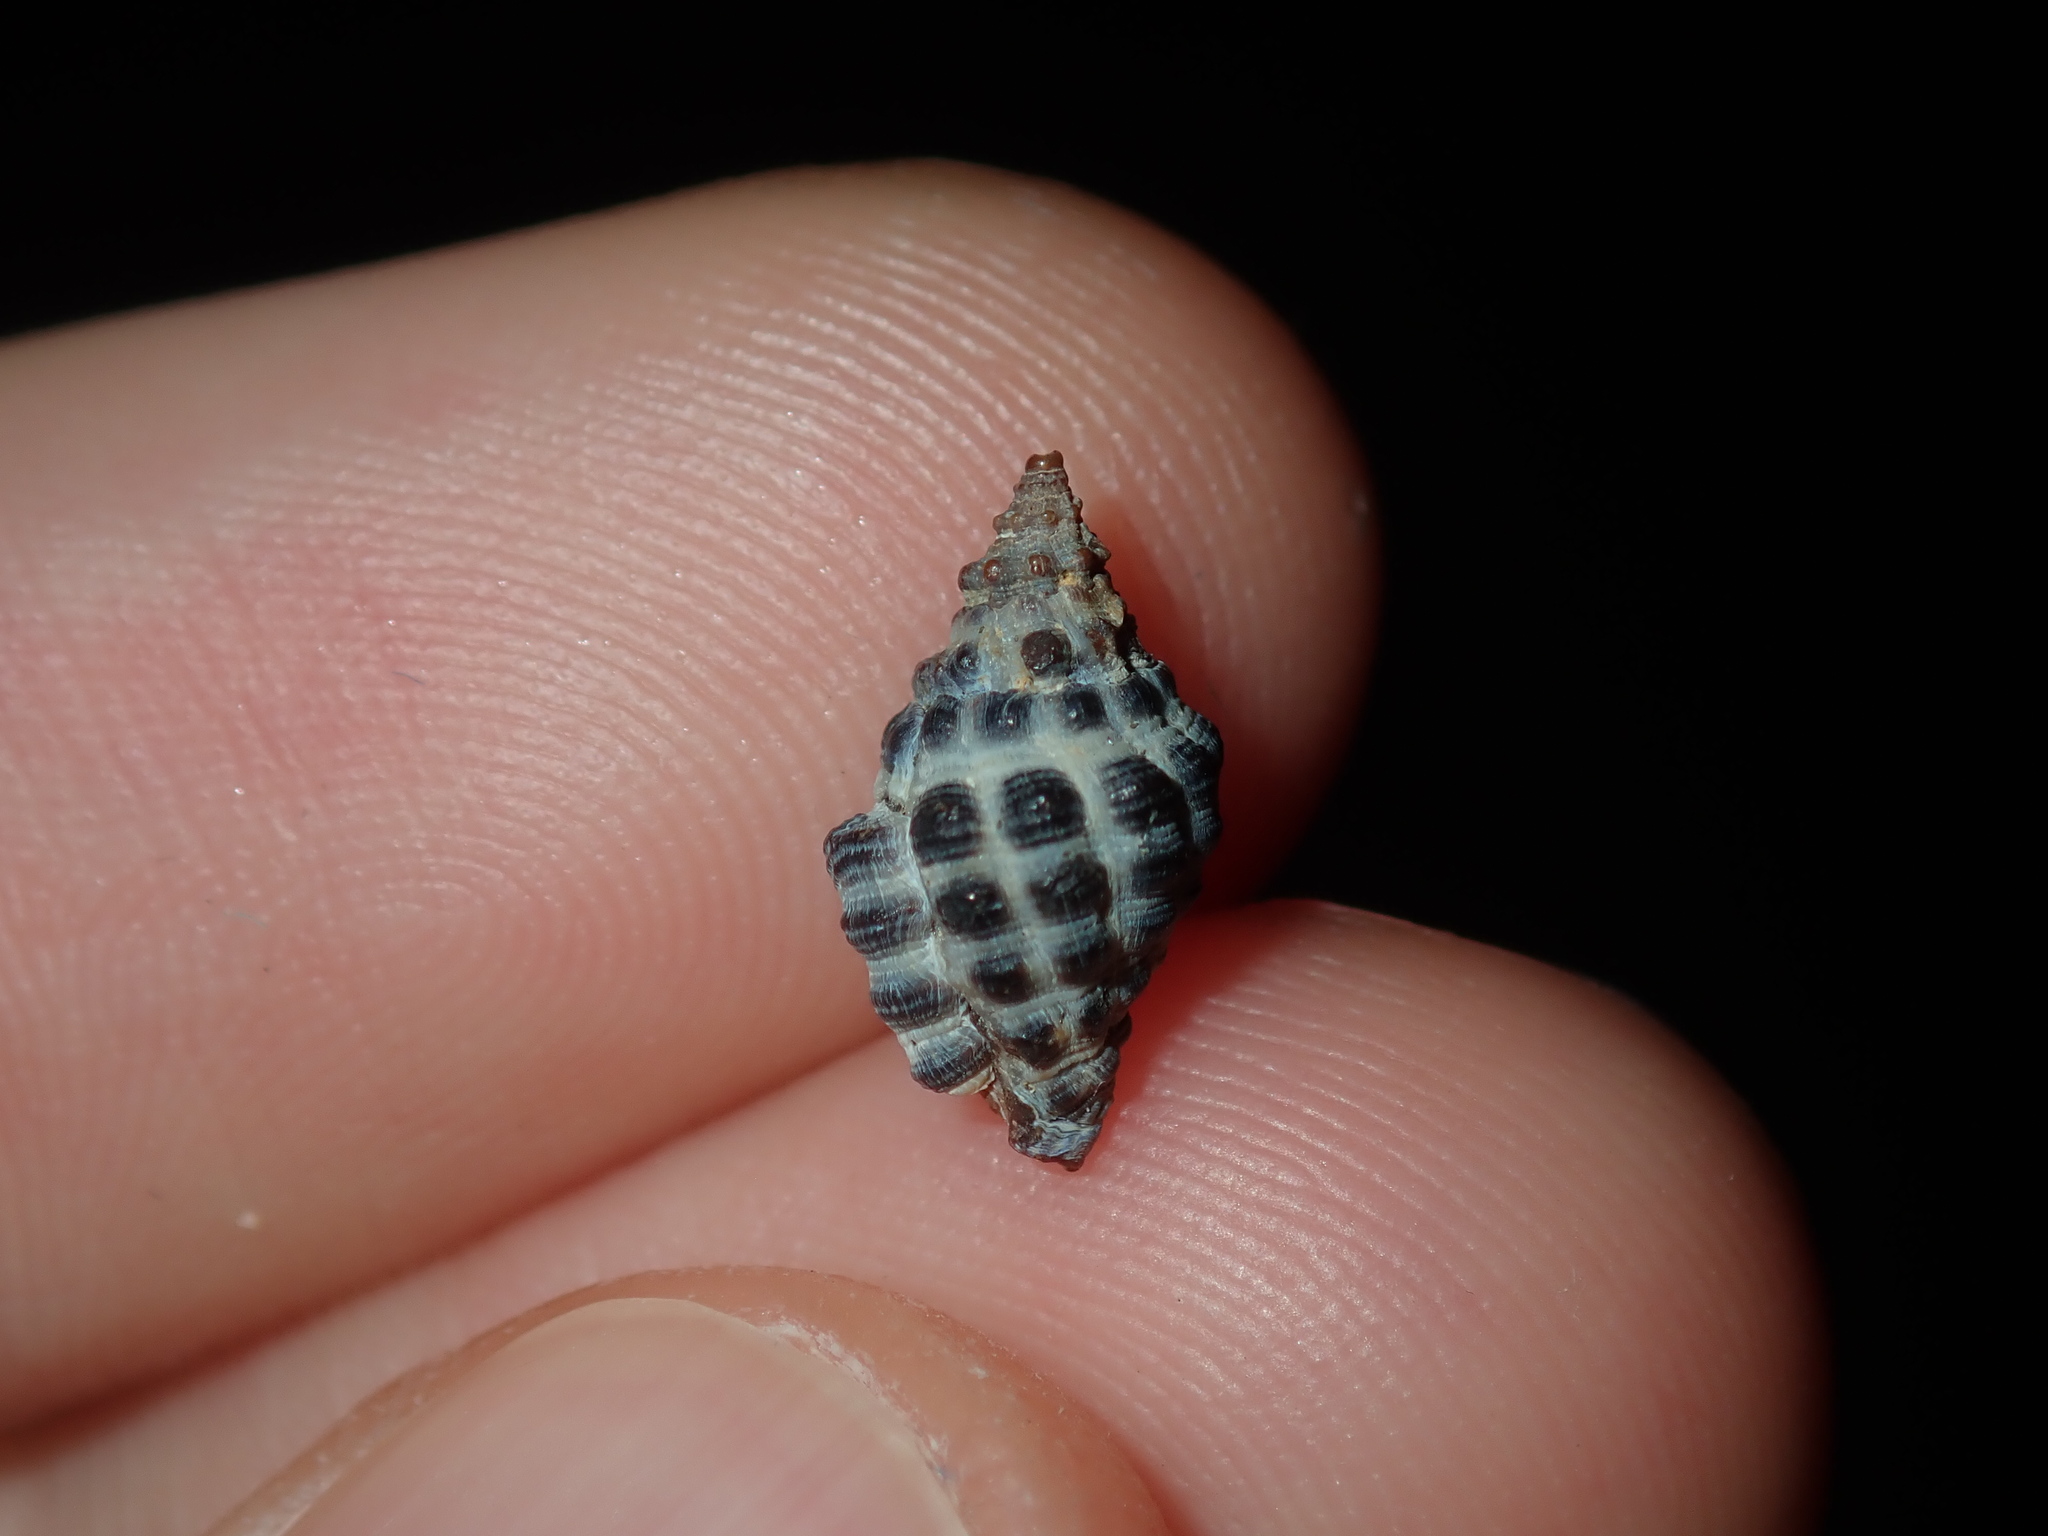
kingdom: Animalia
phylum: Mollusca
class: Gastropoda
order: Neogastropoda
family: Muricidae
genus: Tenguella
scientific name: Tenguella marginalba
